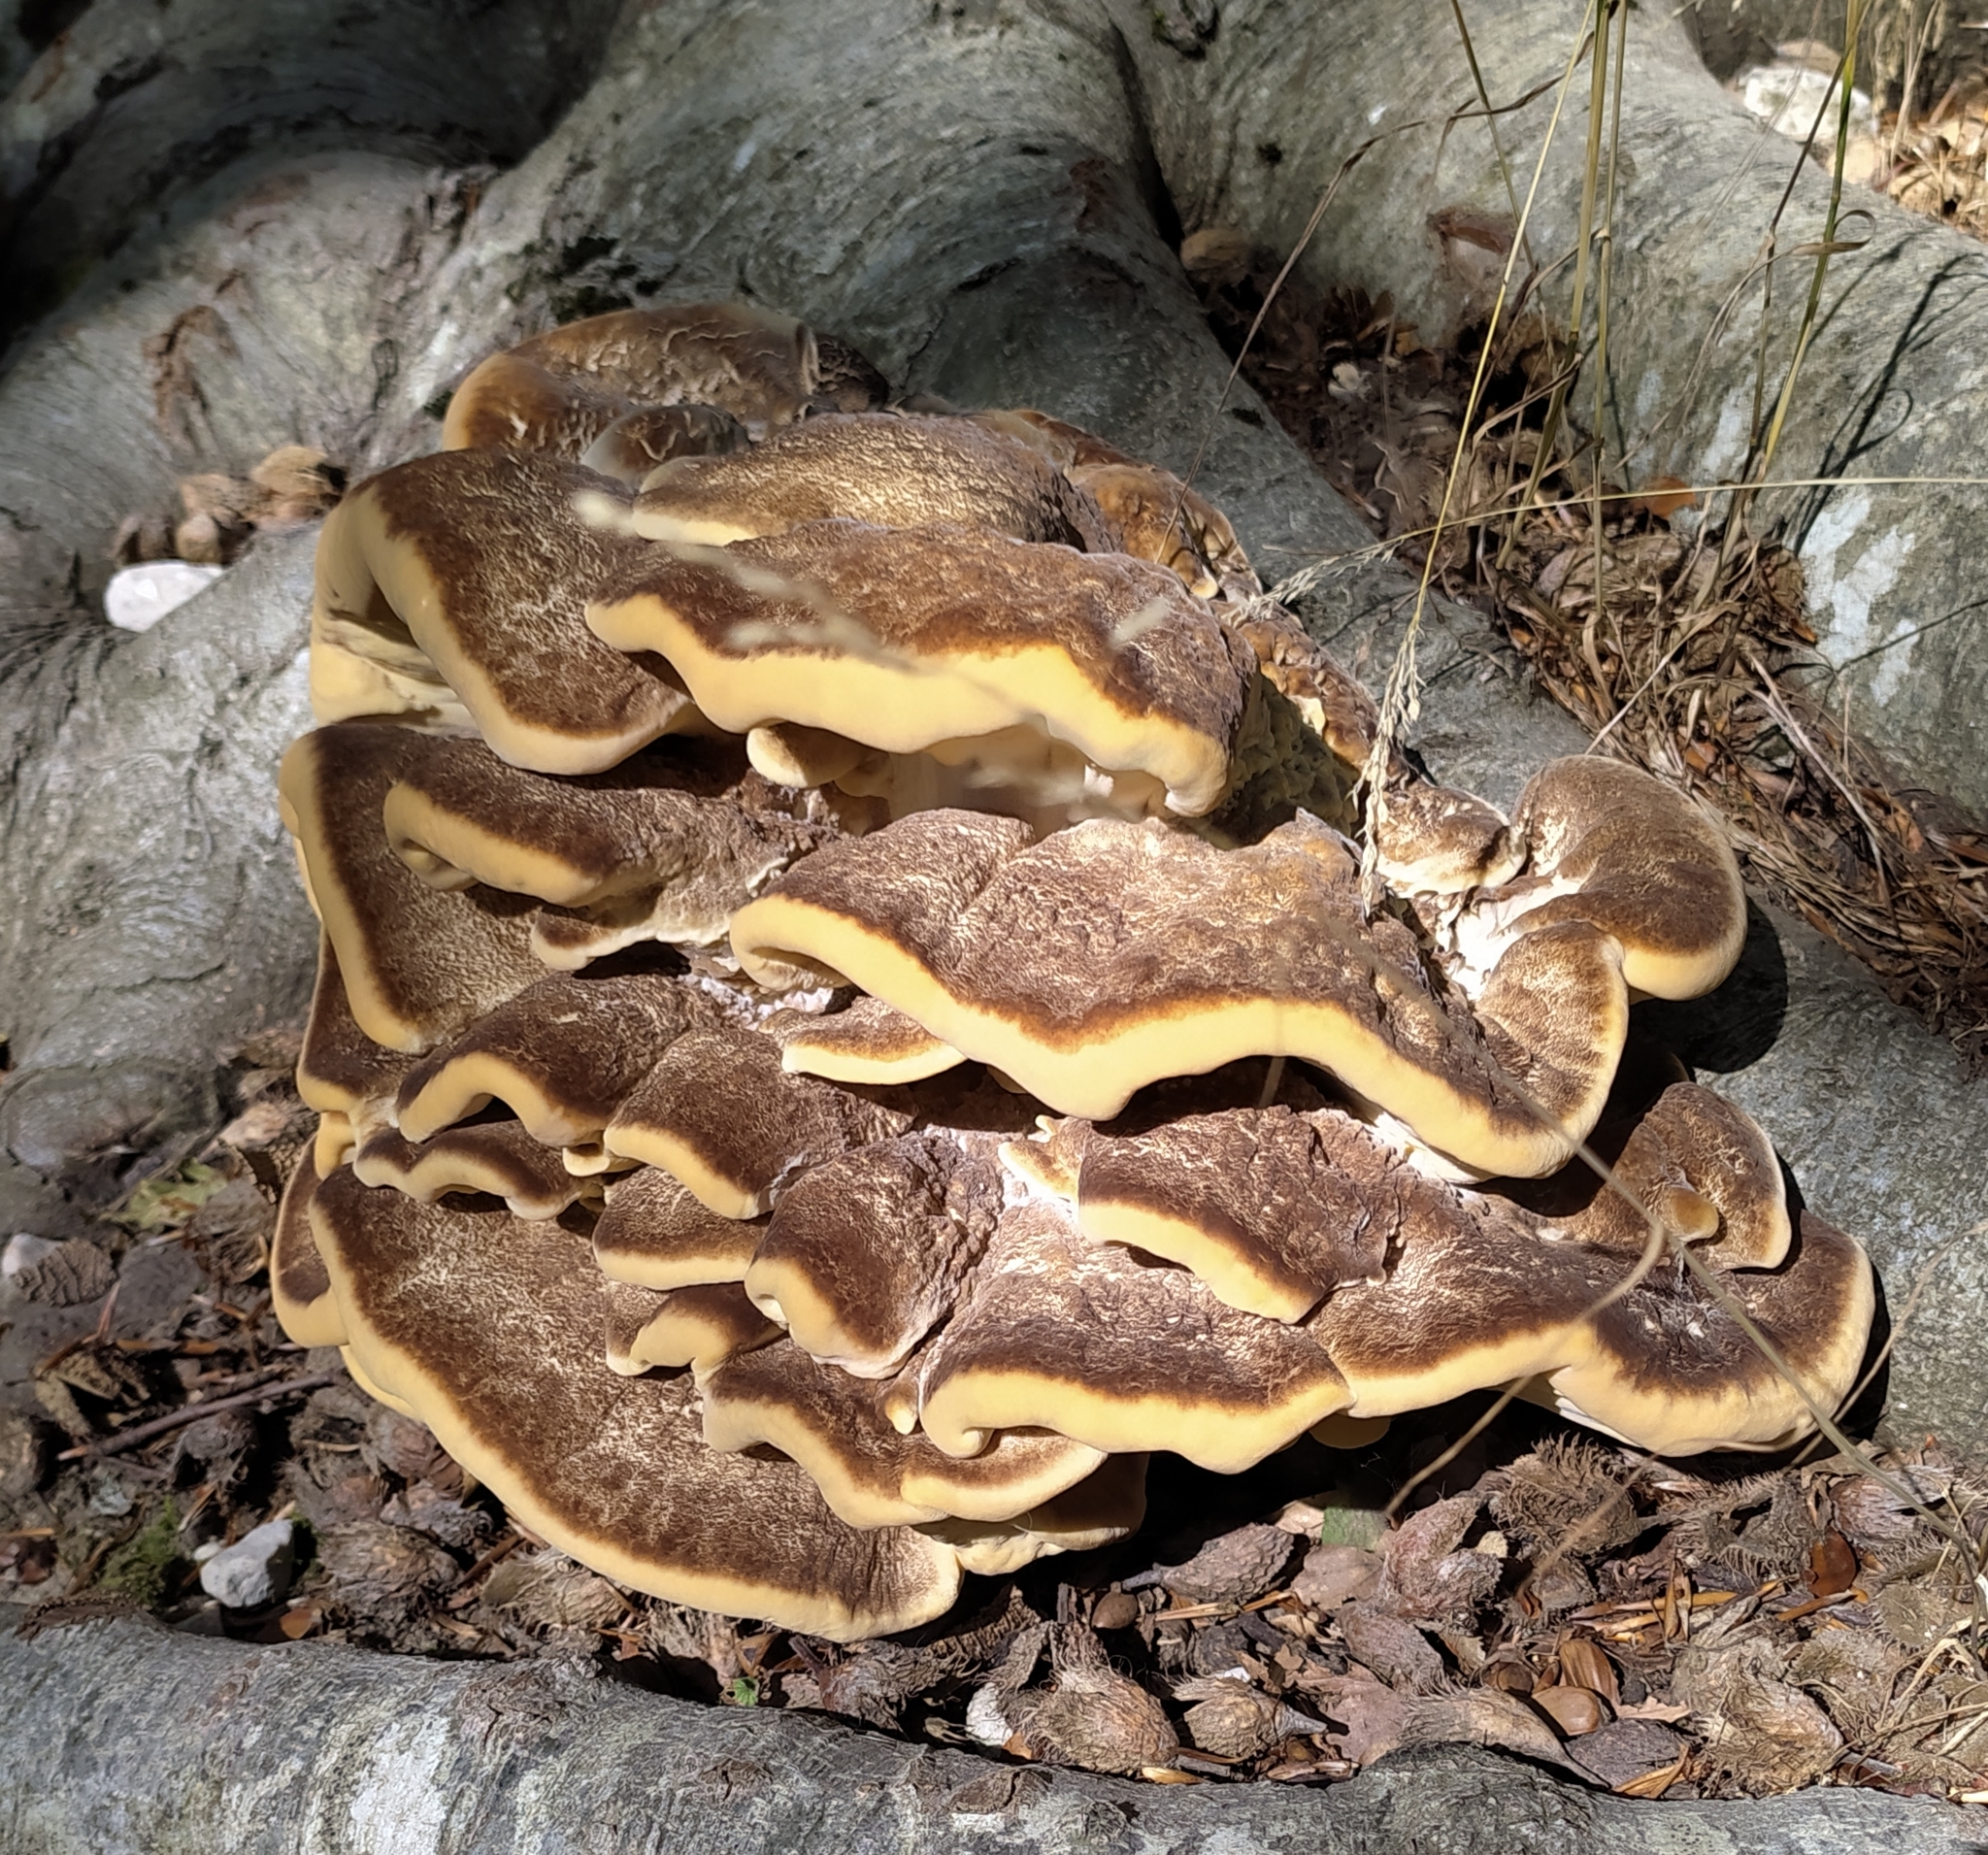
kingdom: Fungi
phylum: Basidiomycota
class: Agaricomycetes
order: Polyporales
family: Meripilaceae
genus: Meripilus
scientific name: Meripilus giganteus
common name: Giant polypore
